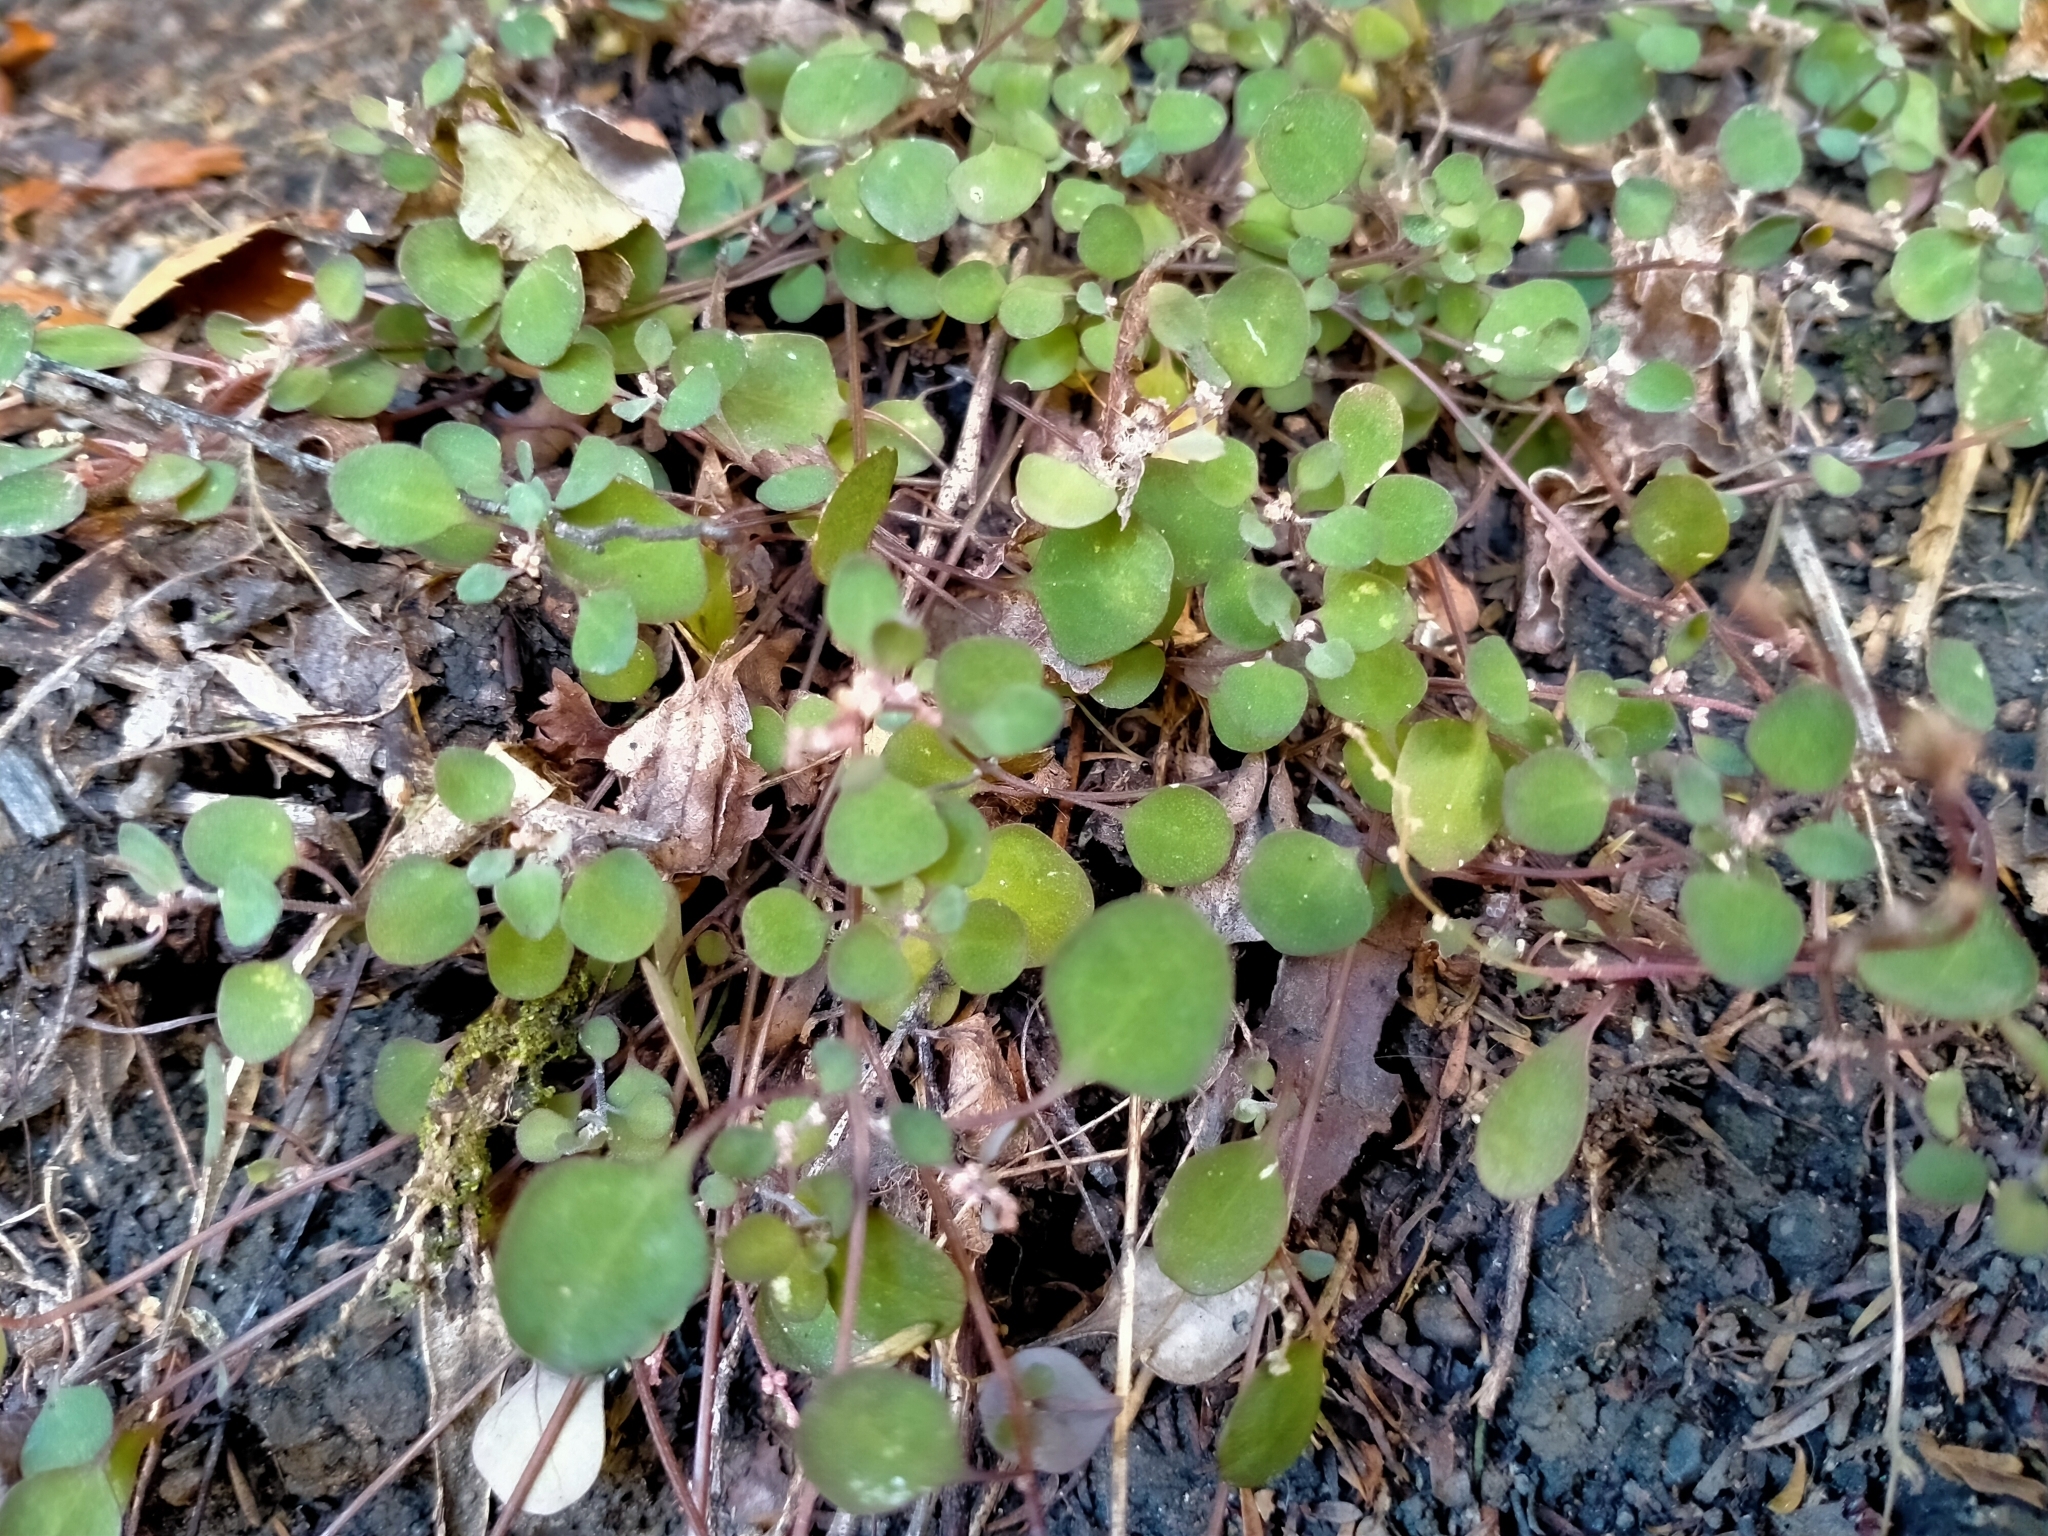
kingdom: Plantae
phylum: Tracheophyta
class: Magnoliopsida
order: Caryophyllales
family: Amaranthaceae
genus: Chenopodium
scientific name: Chenopodium allanii
